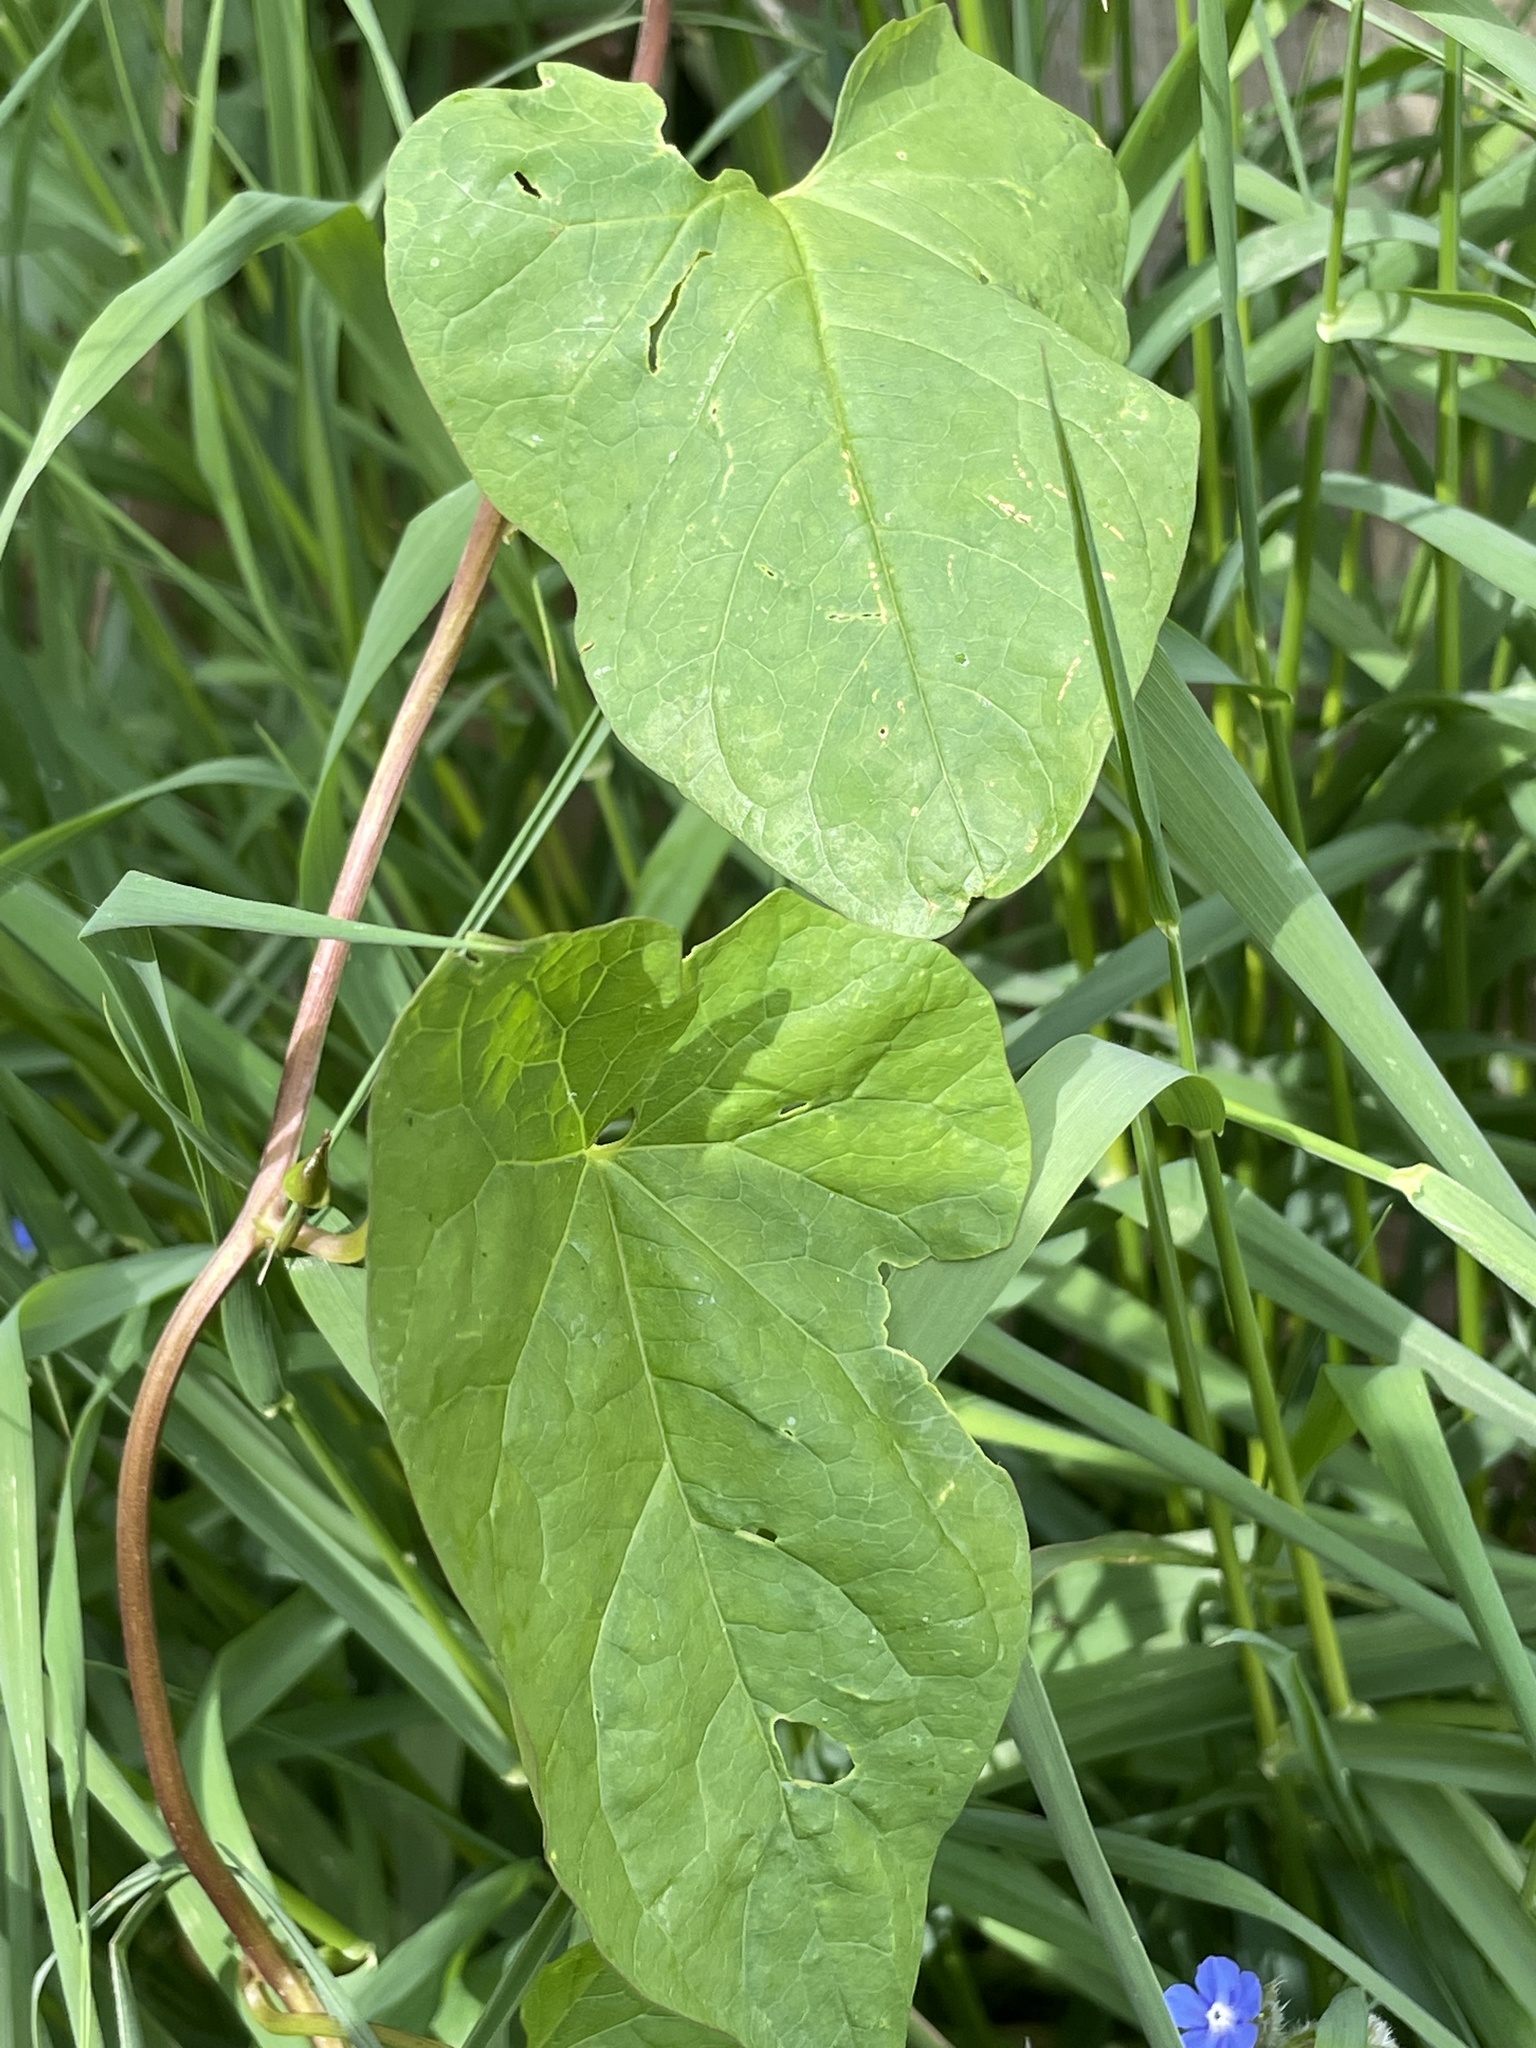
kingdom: Plantae
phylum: Tracheophyta
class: Magnoliopsida
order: Solanales
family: Convolvulaceae
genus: Calystegia
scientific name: Calystegia
